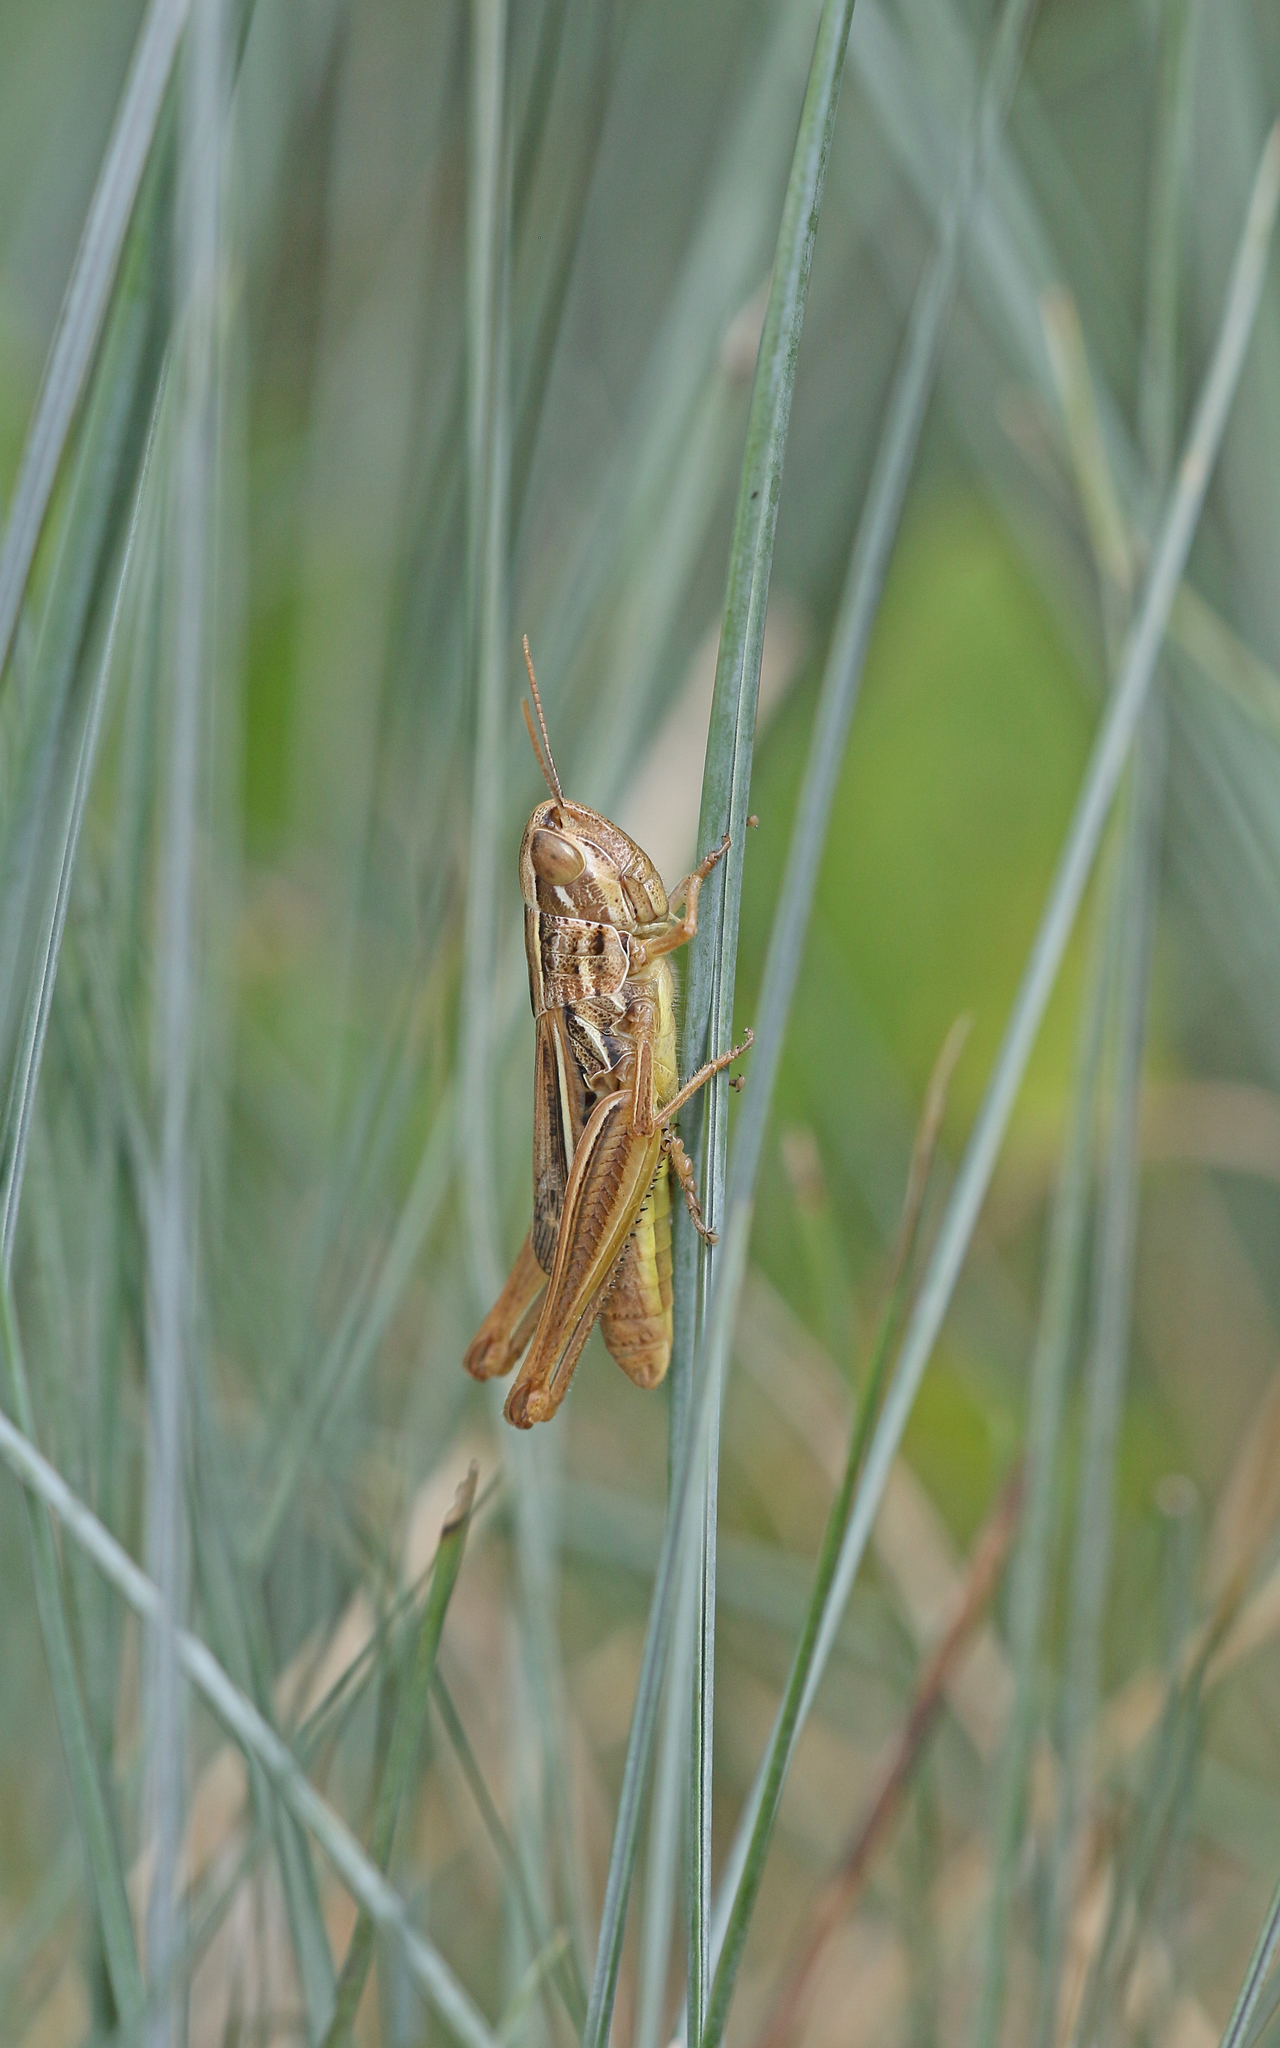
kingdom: Animalia
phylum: Arthropoda
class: Insecta
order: Orthoptera
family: Acrididae
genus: Euchorthippus
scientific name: Euchorthippus declivus
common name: Common straw grasshopper
